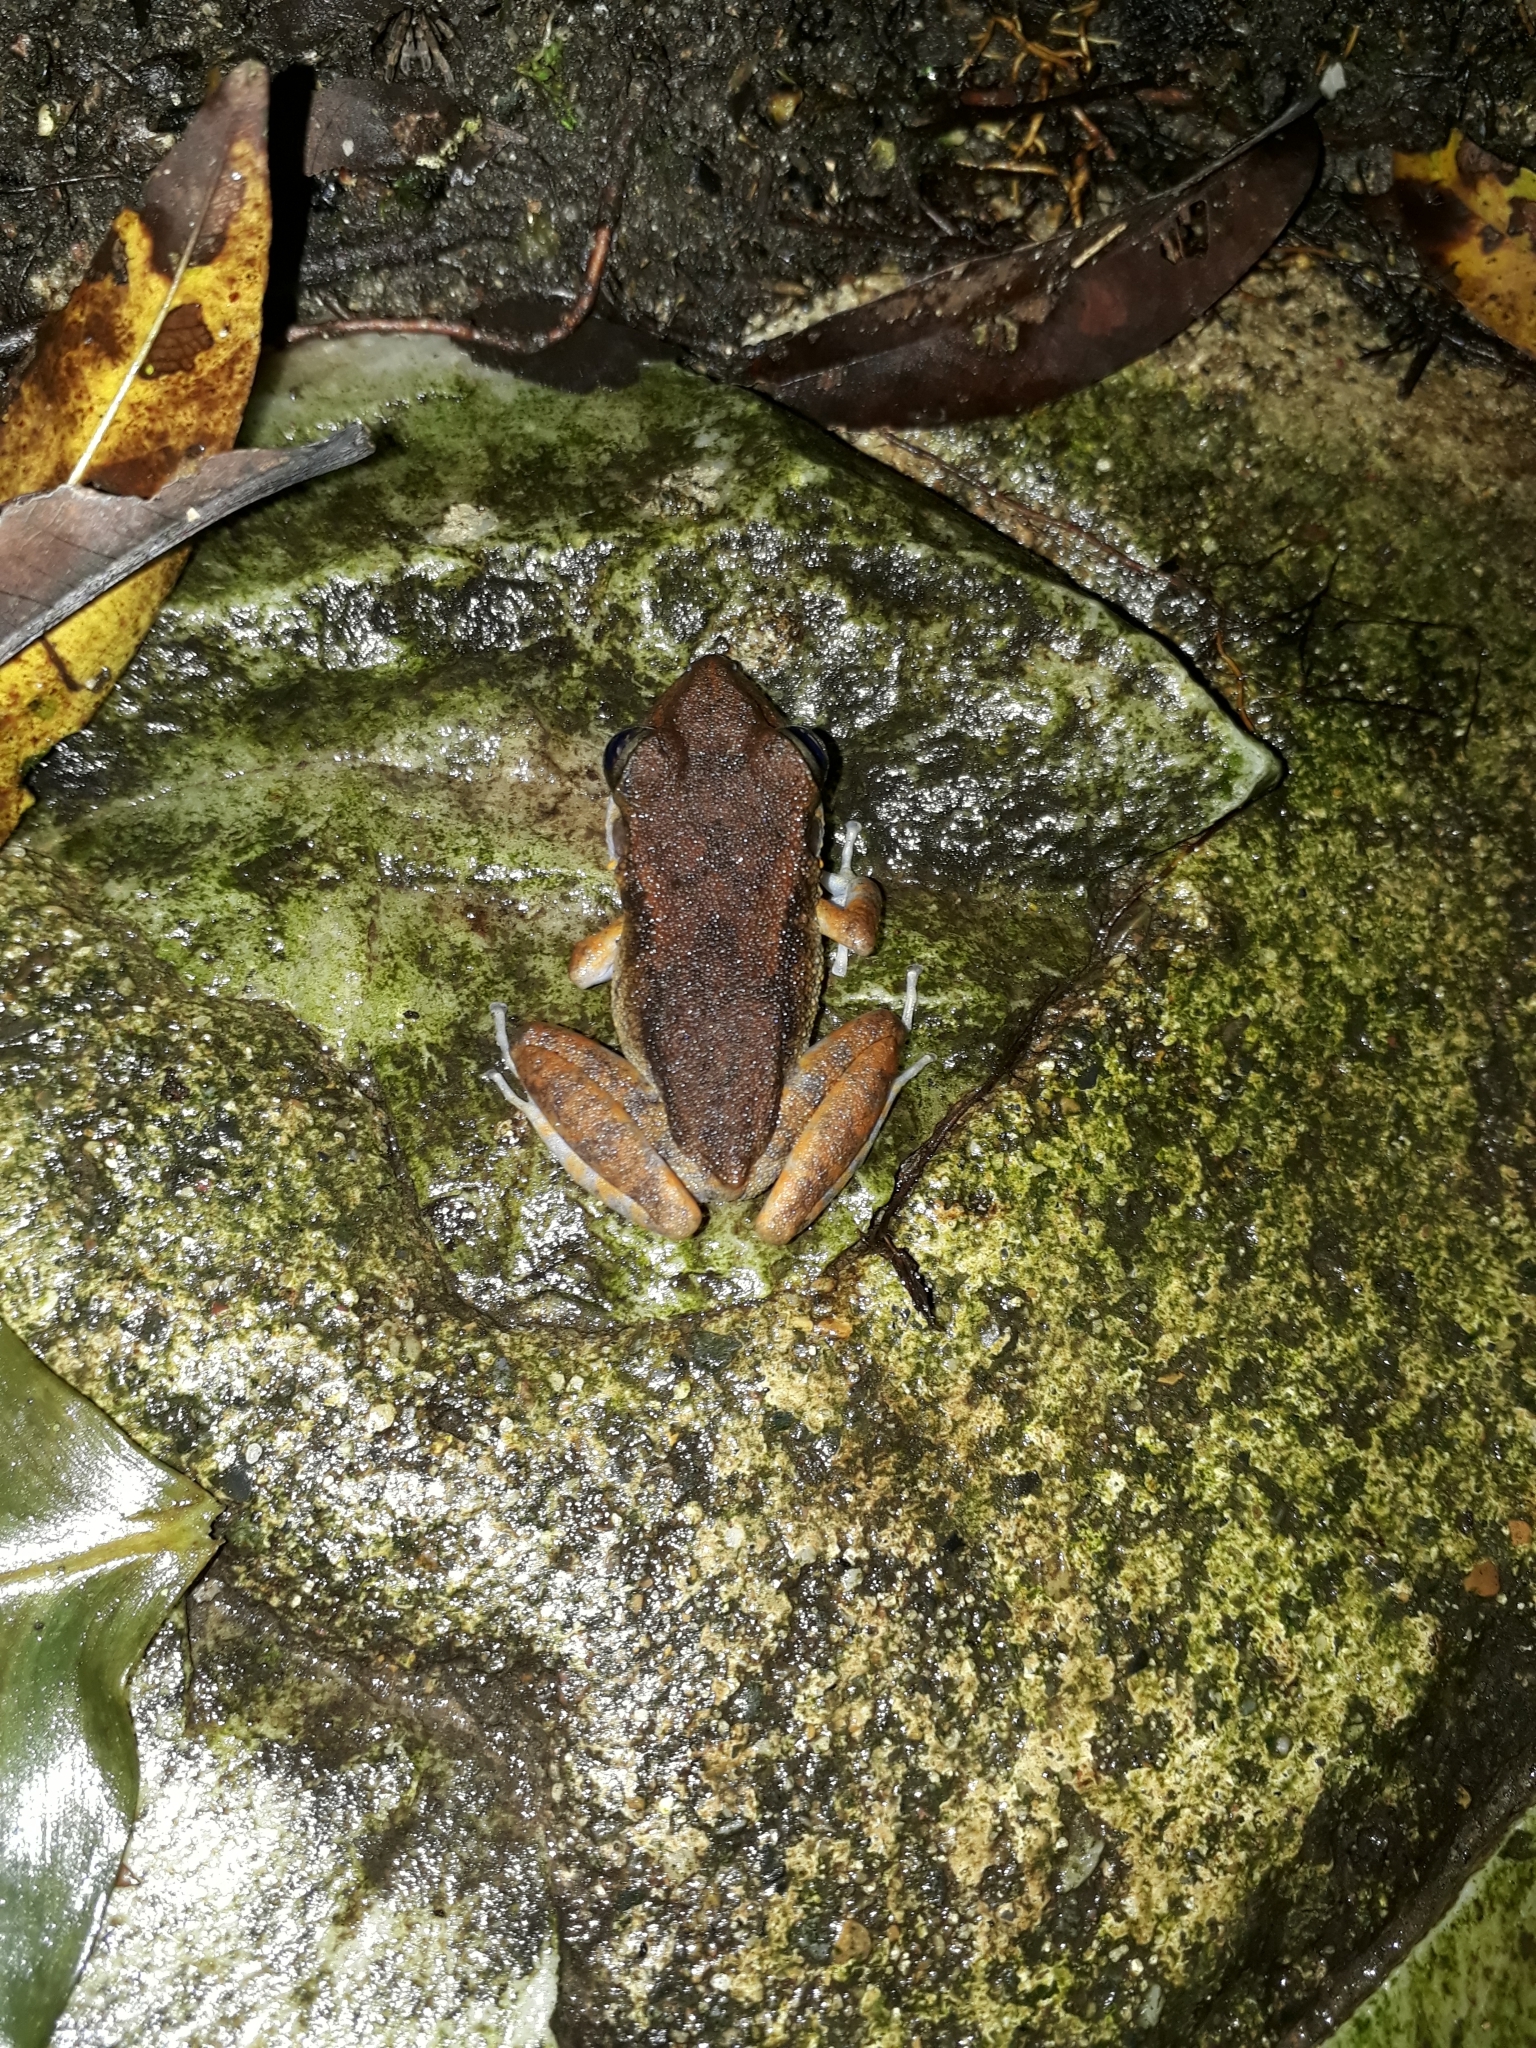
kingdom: Animalia
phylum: Chordata
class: Amphibia
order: Anura
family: Craugastoridae
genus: Pristimantis
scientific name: Pristimantis gaigei
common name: Fort randolph robber frog
